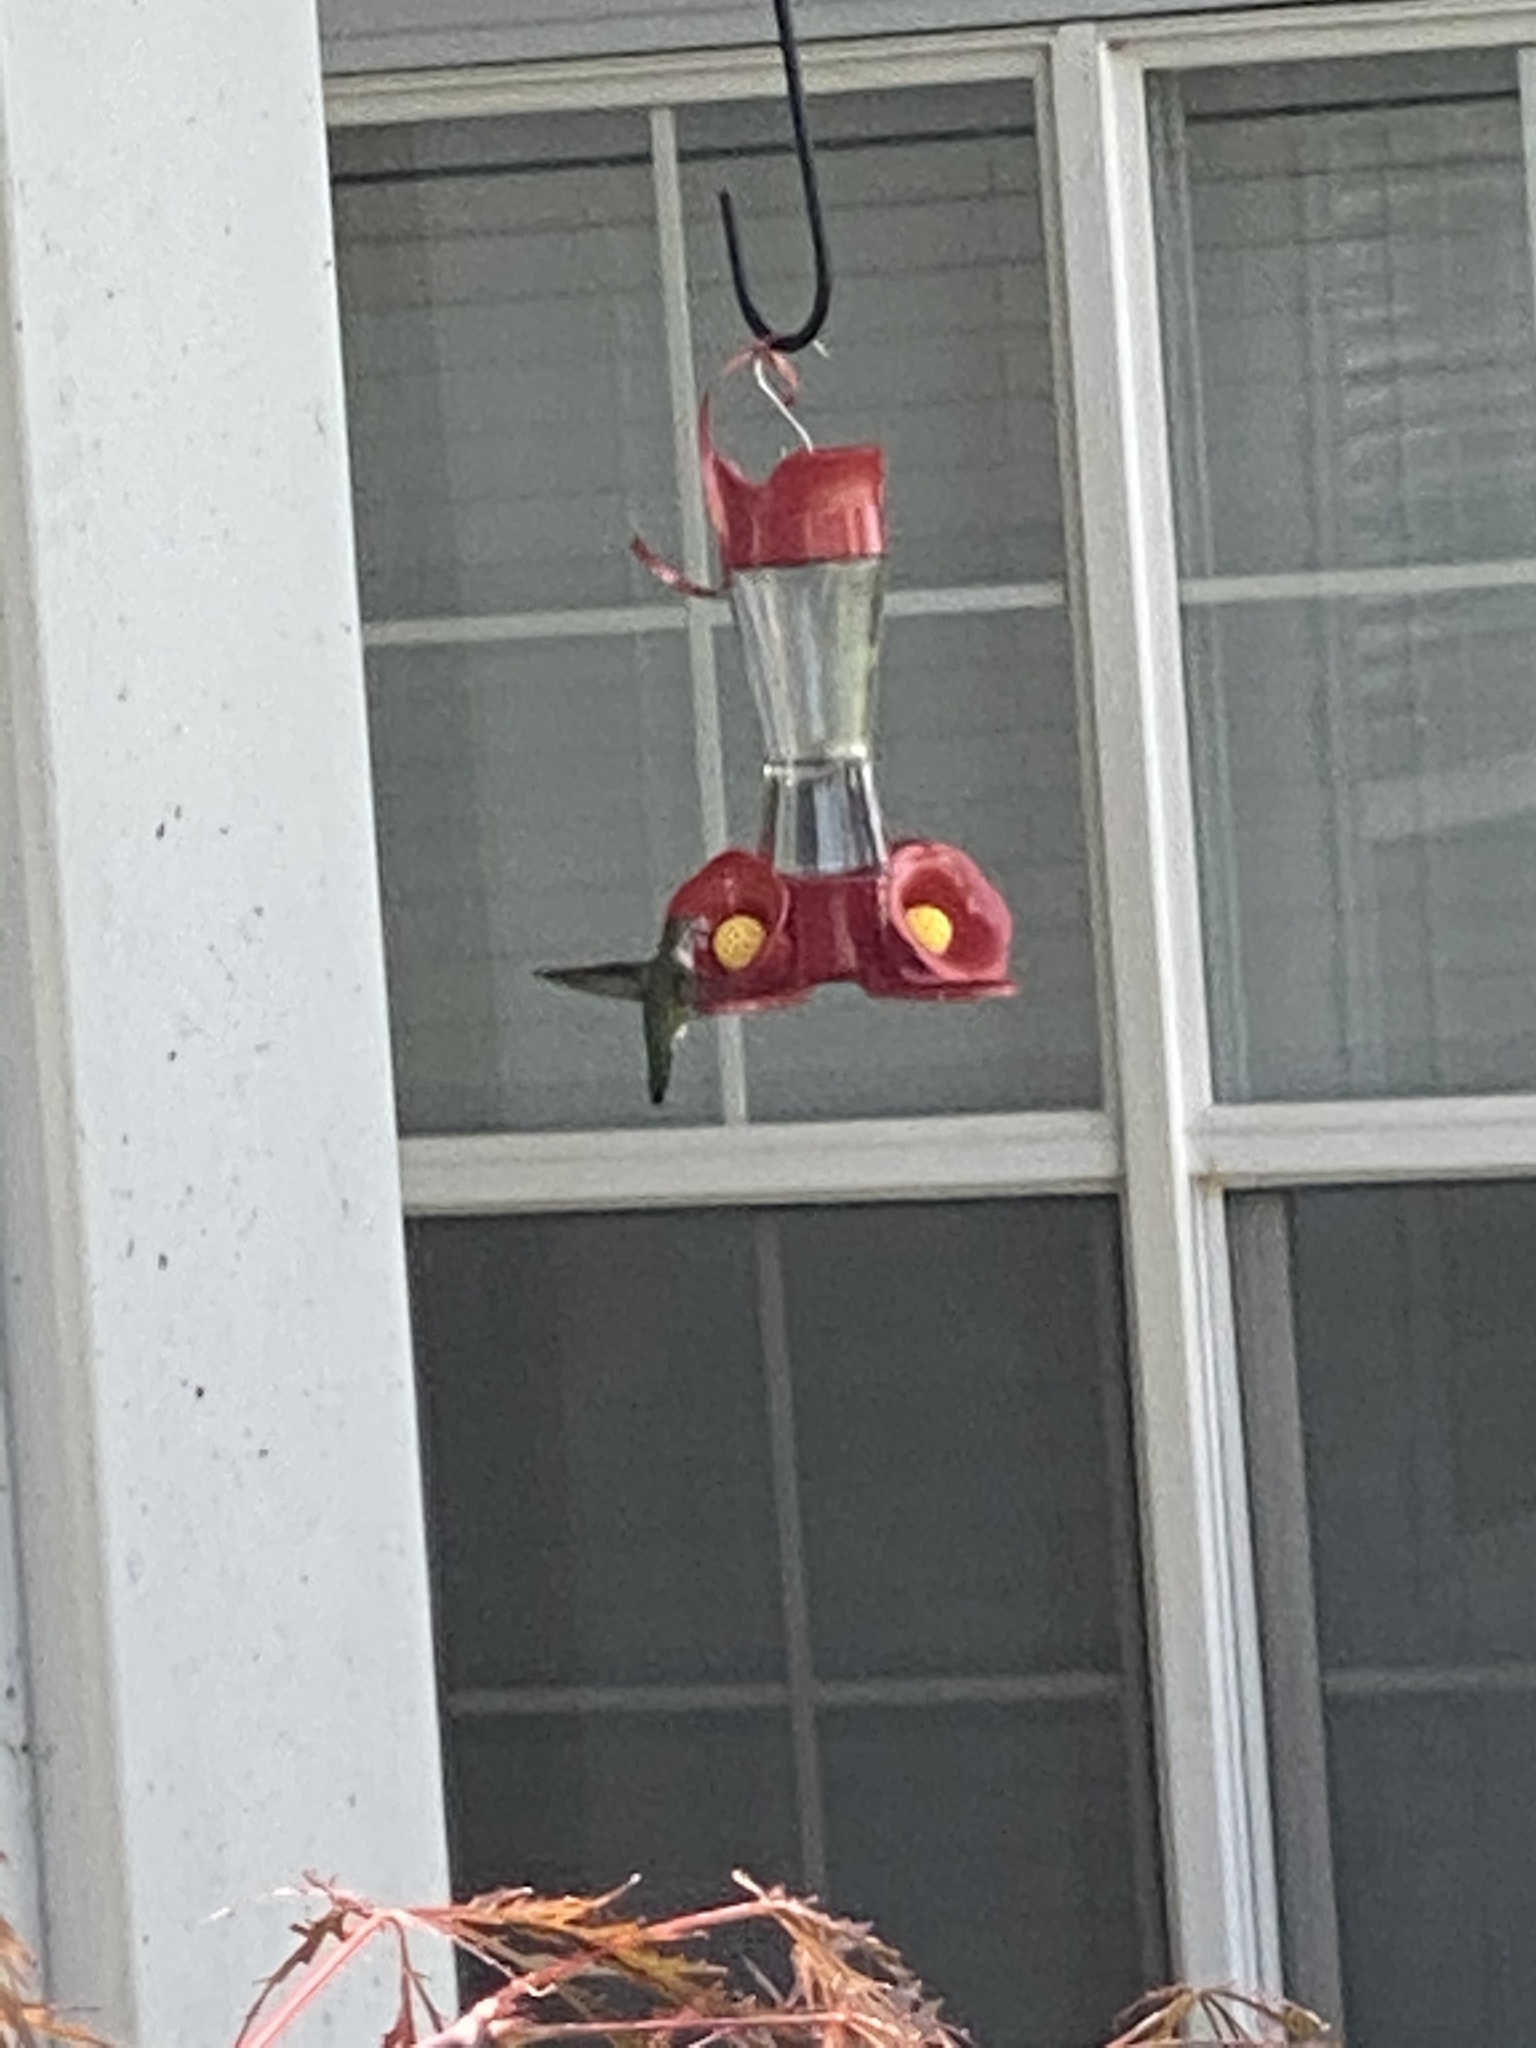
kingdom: Animalia
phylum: Chordata
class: Aves
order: Apodiformes
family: Trochilidae
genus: Calypte
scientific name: Calypte anna
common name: Anna's hummingbird
